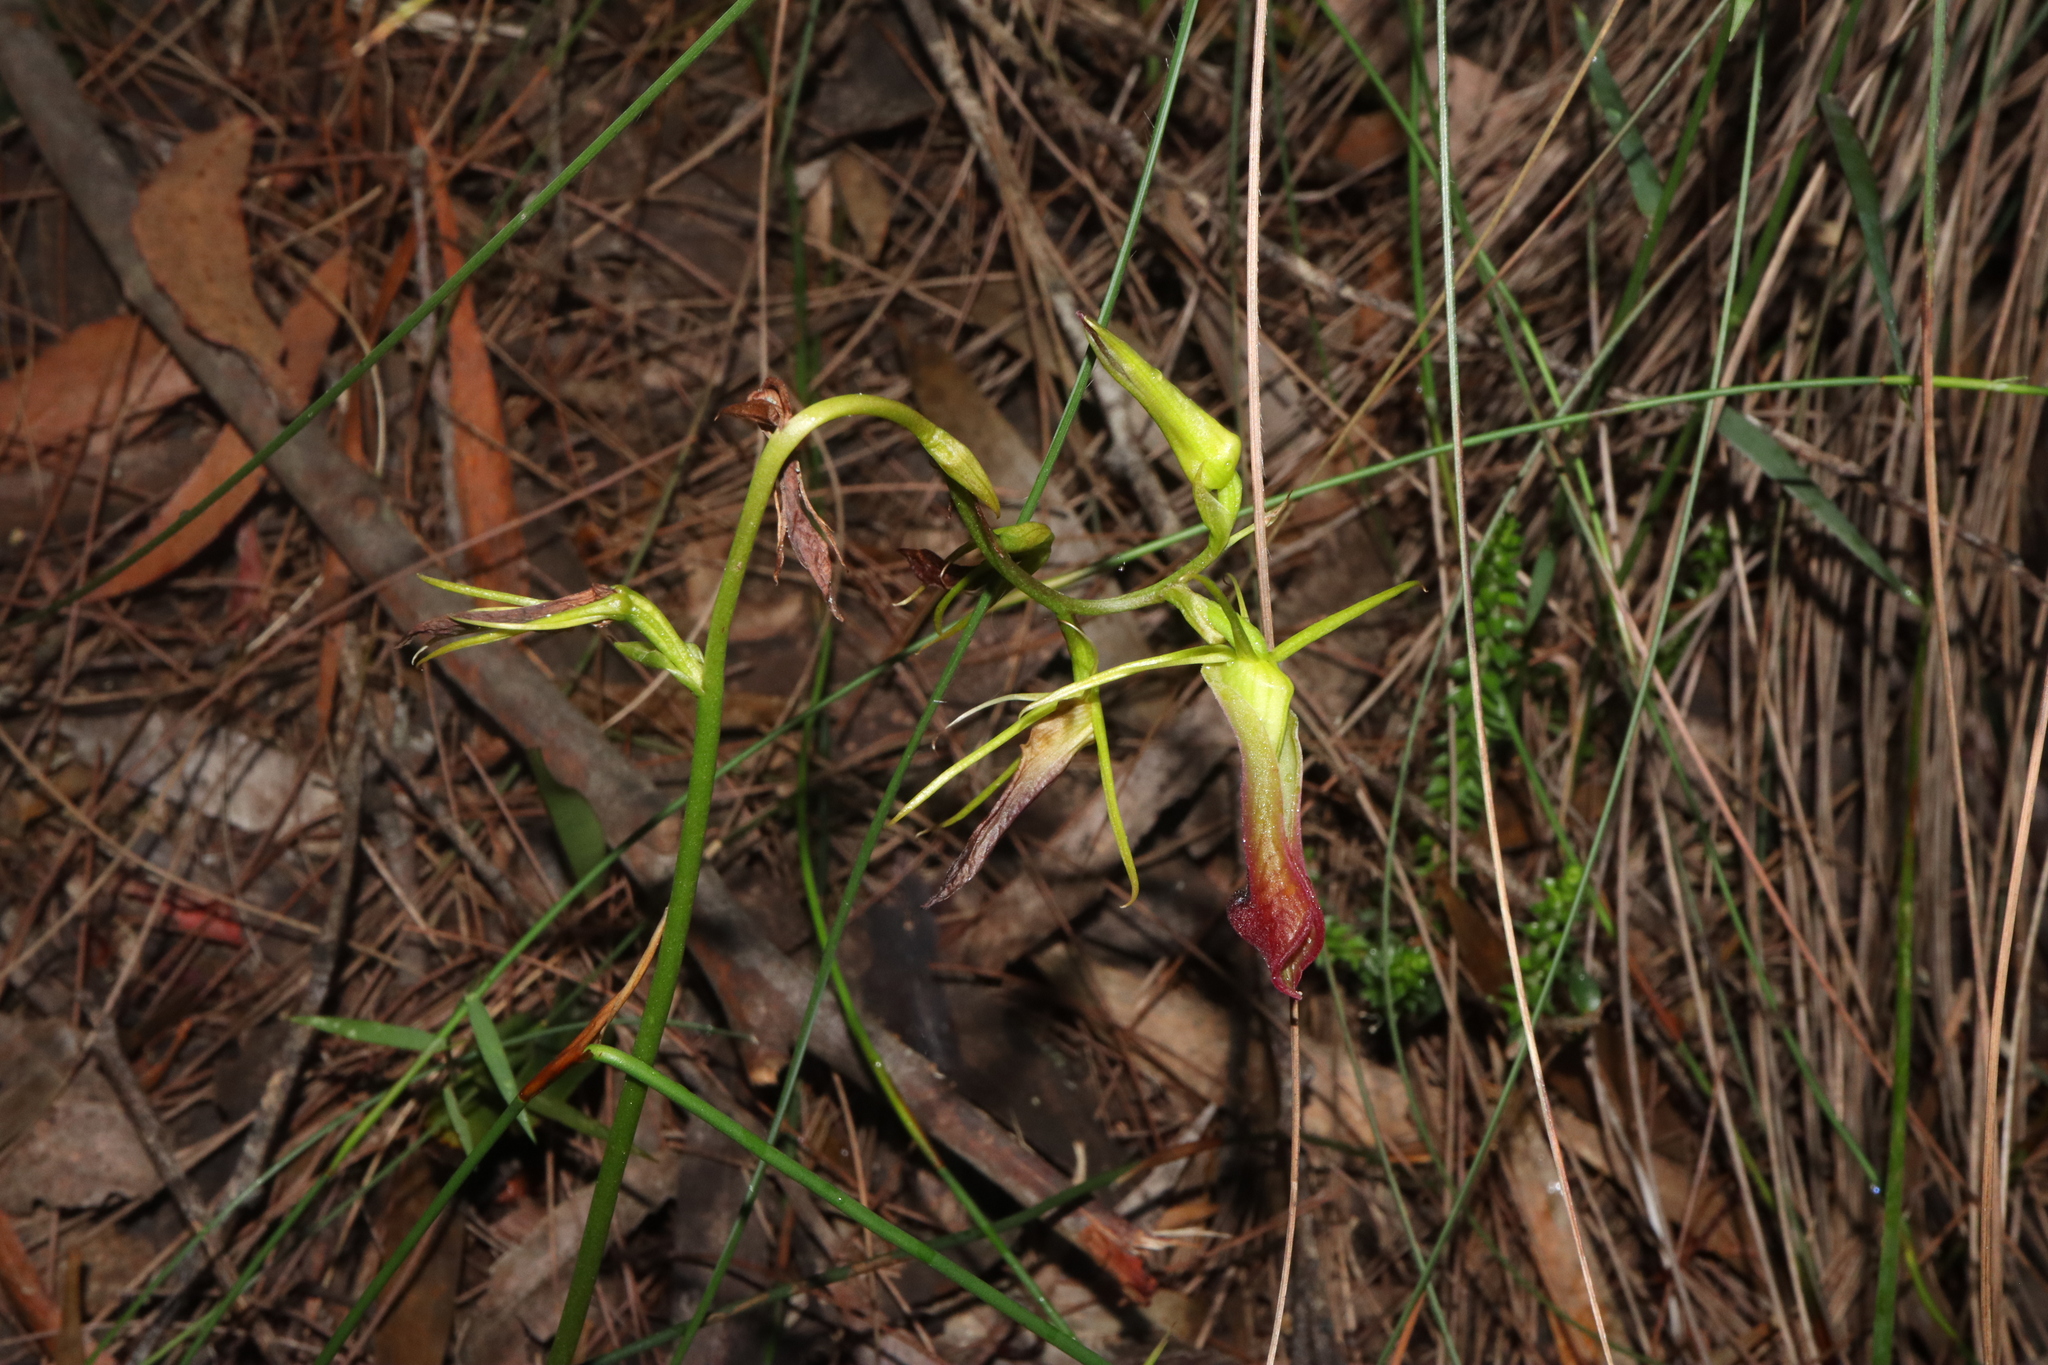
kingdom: Plantae
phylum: Tracheophyta
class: Liliopsida
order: Asparagales
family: Orchidaceae
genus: Cryptostylis
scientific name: Cryptostylis subulata
